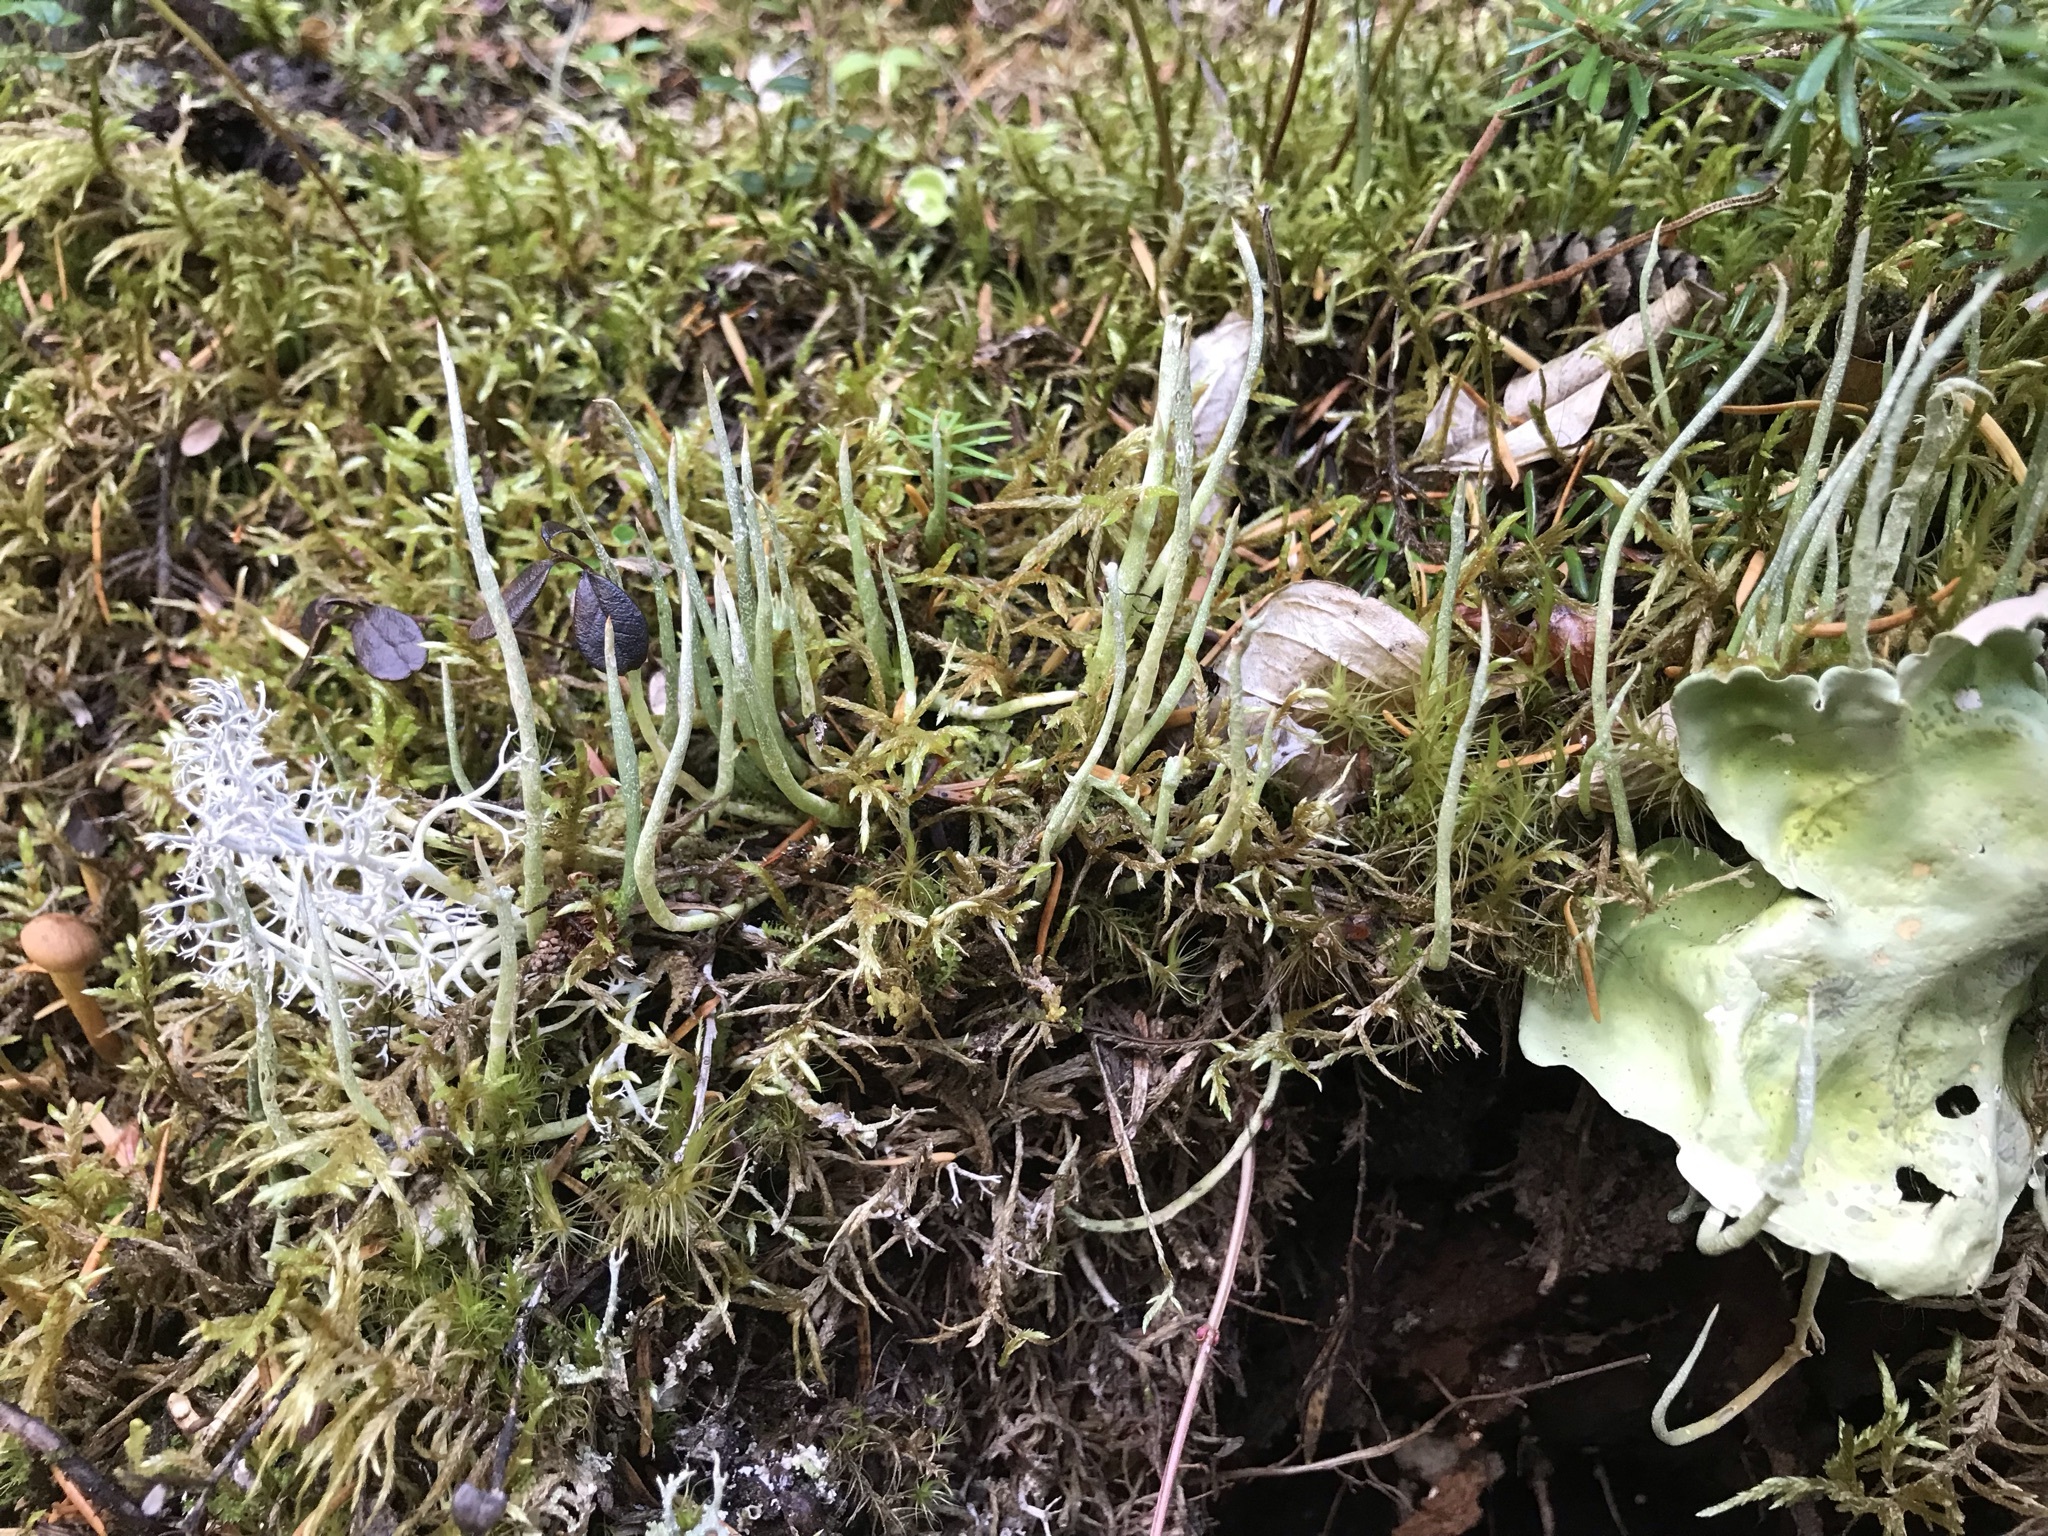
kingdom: Fungi
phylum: Ascomycota
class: Lecanoromycetes
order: Lecanorales
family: Cladoniaceae
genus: Cladonia
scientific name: Cladonia gracilis
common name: Smooth clad lichen
